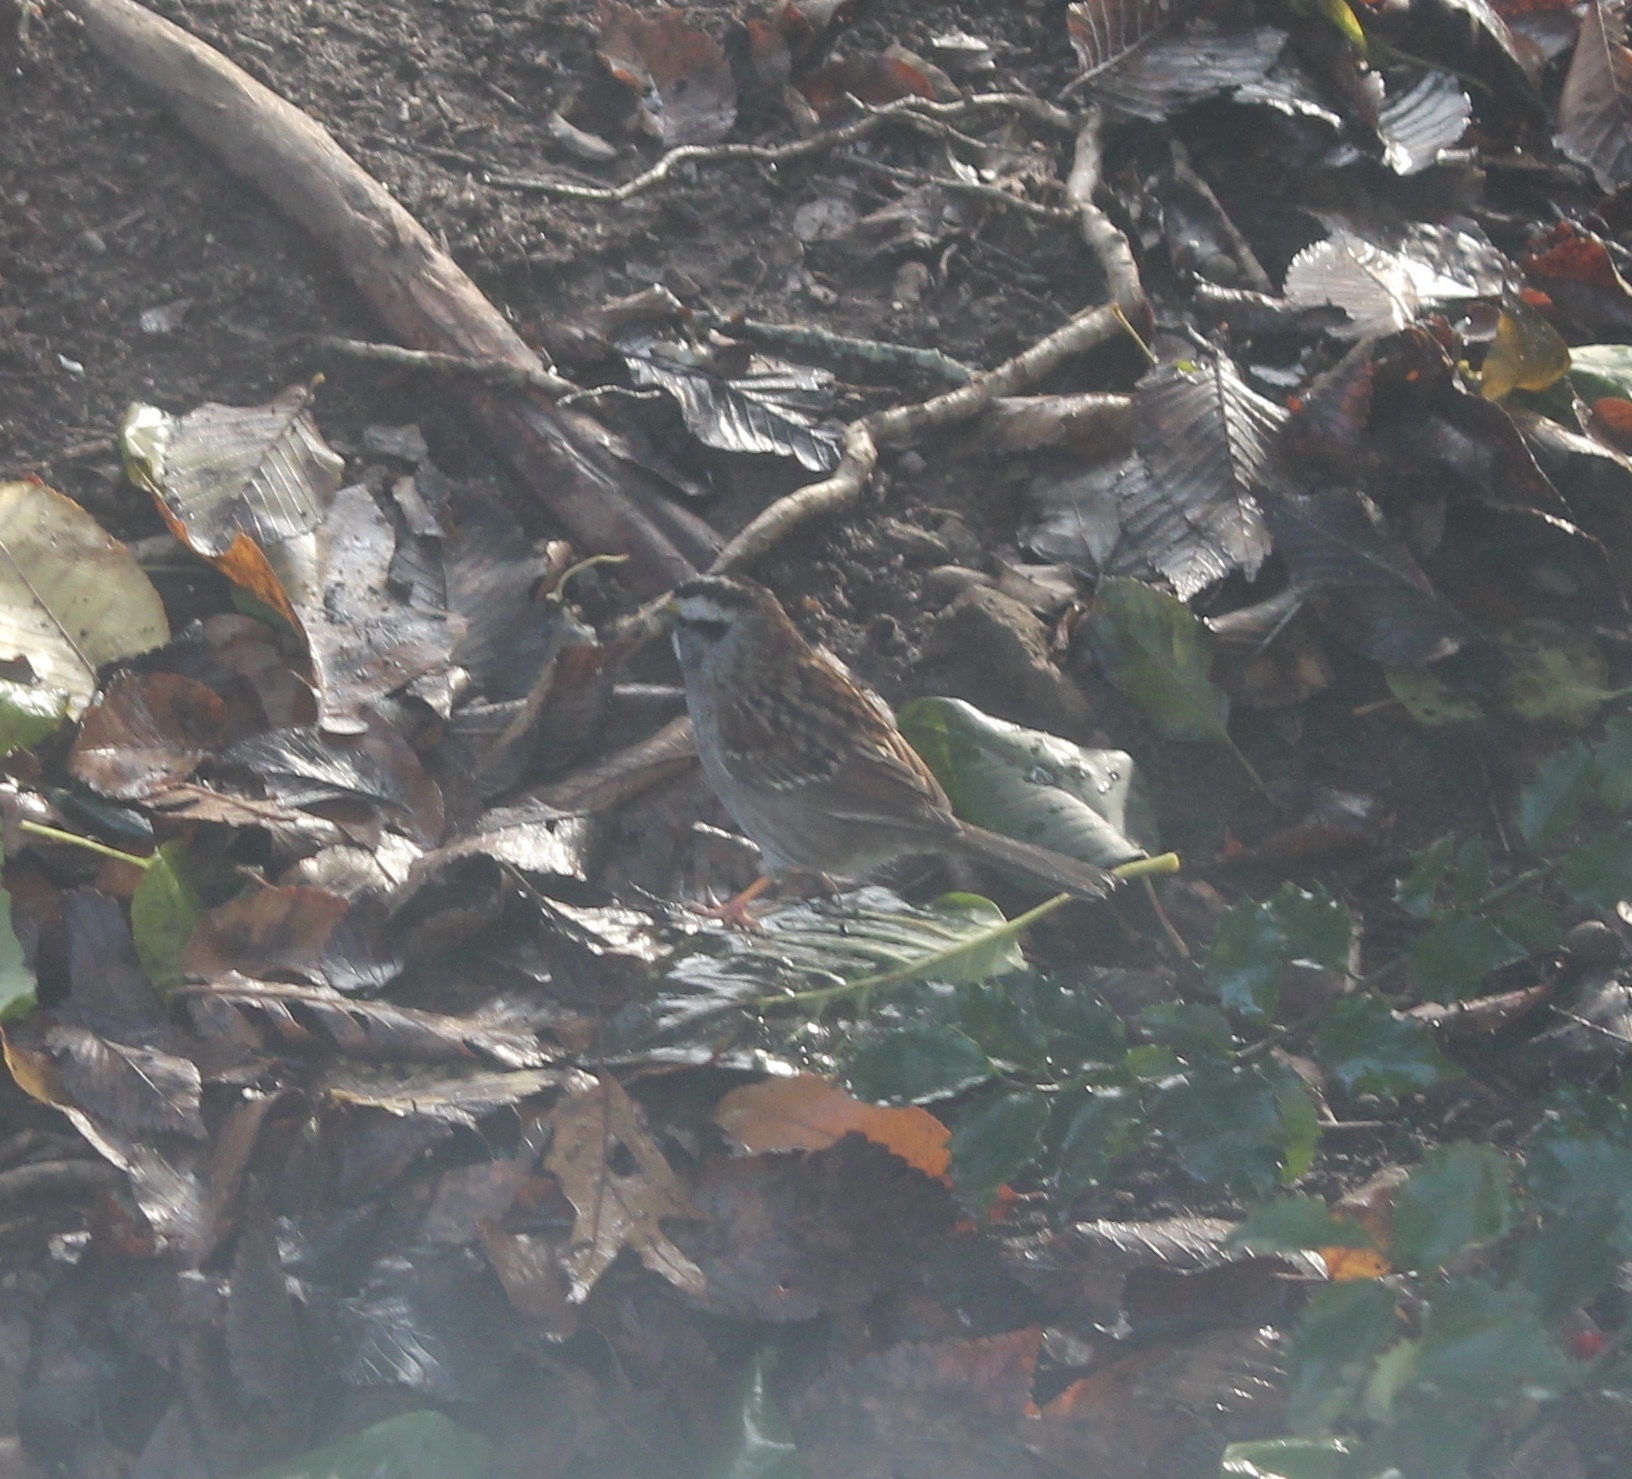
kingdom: Animalia
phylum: Chordata
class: Aves
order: Passeriformes
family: Passerellidae
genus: Zonotrichia
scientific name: Zonotrichia albicollis
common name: White-throated sparrow
